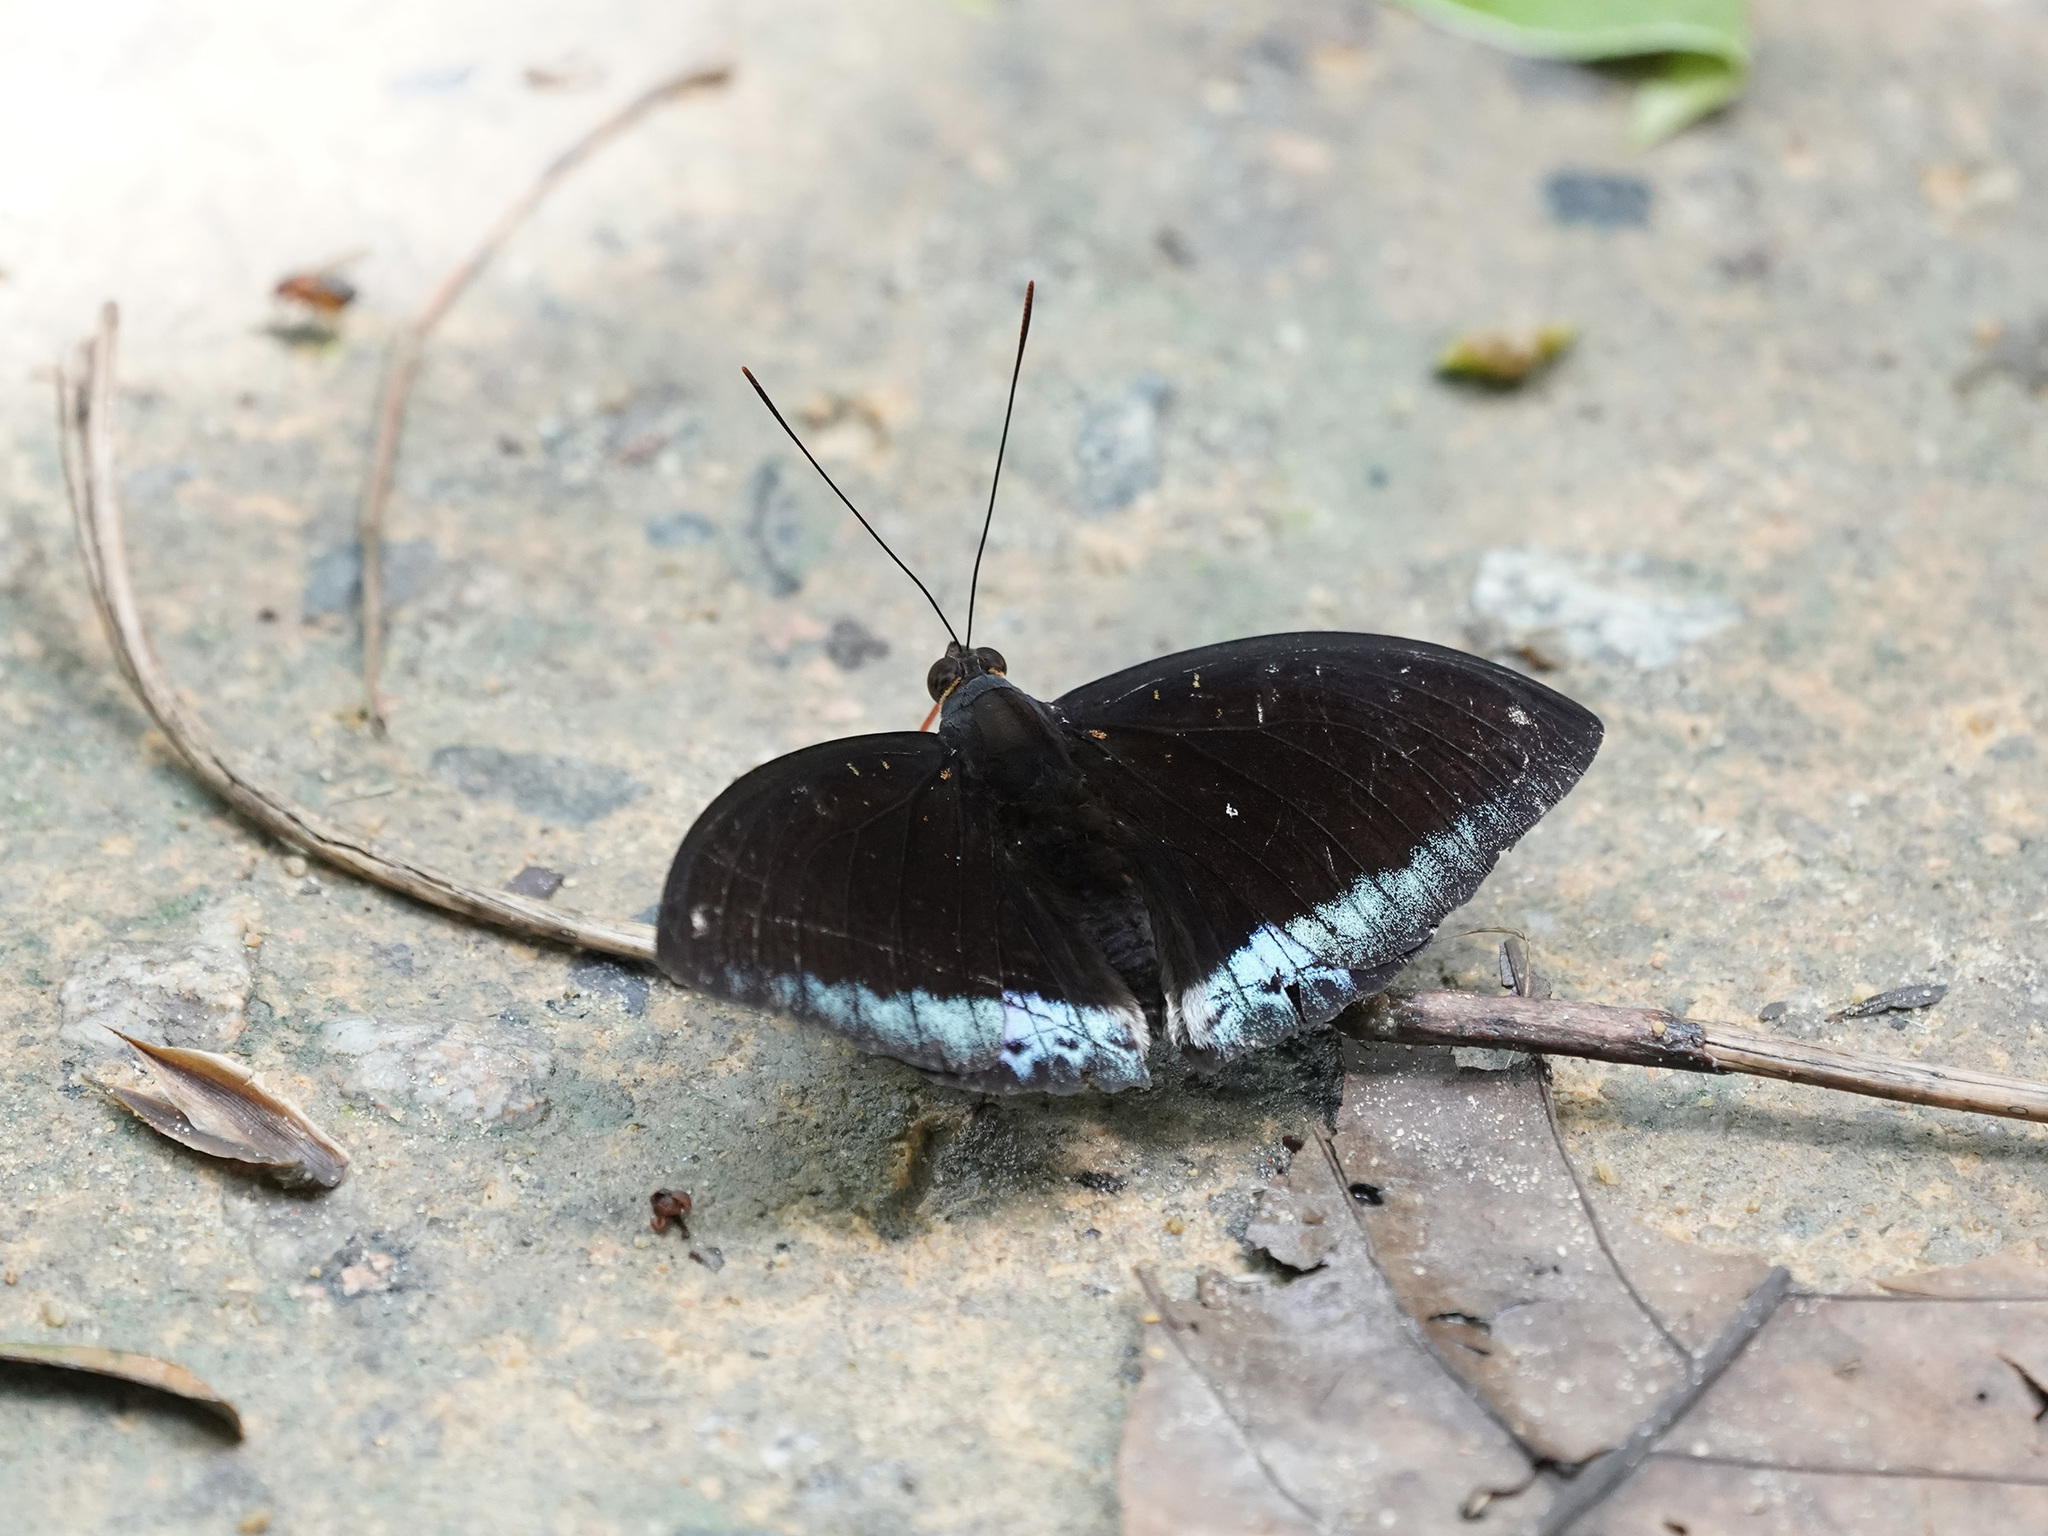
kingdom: Animalia
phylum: Arthropoda
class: Insecta
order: Lepidoptera
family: Nymphalidae
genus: Lexias
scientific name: Lexias dirtea
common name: Black-tipped archduke
